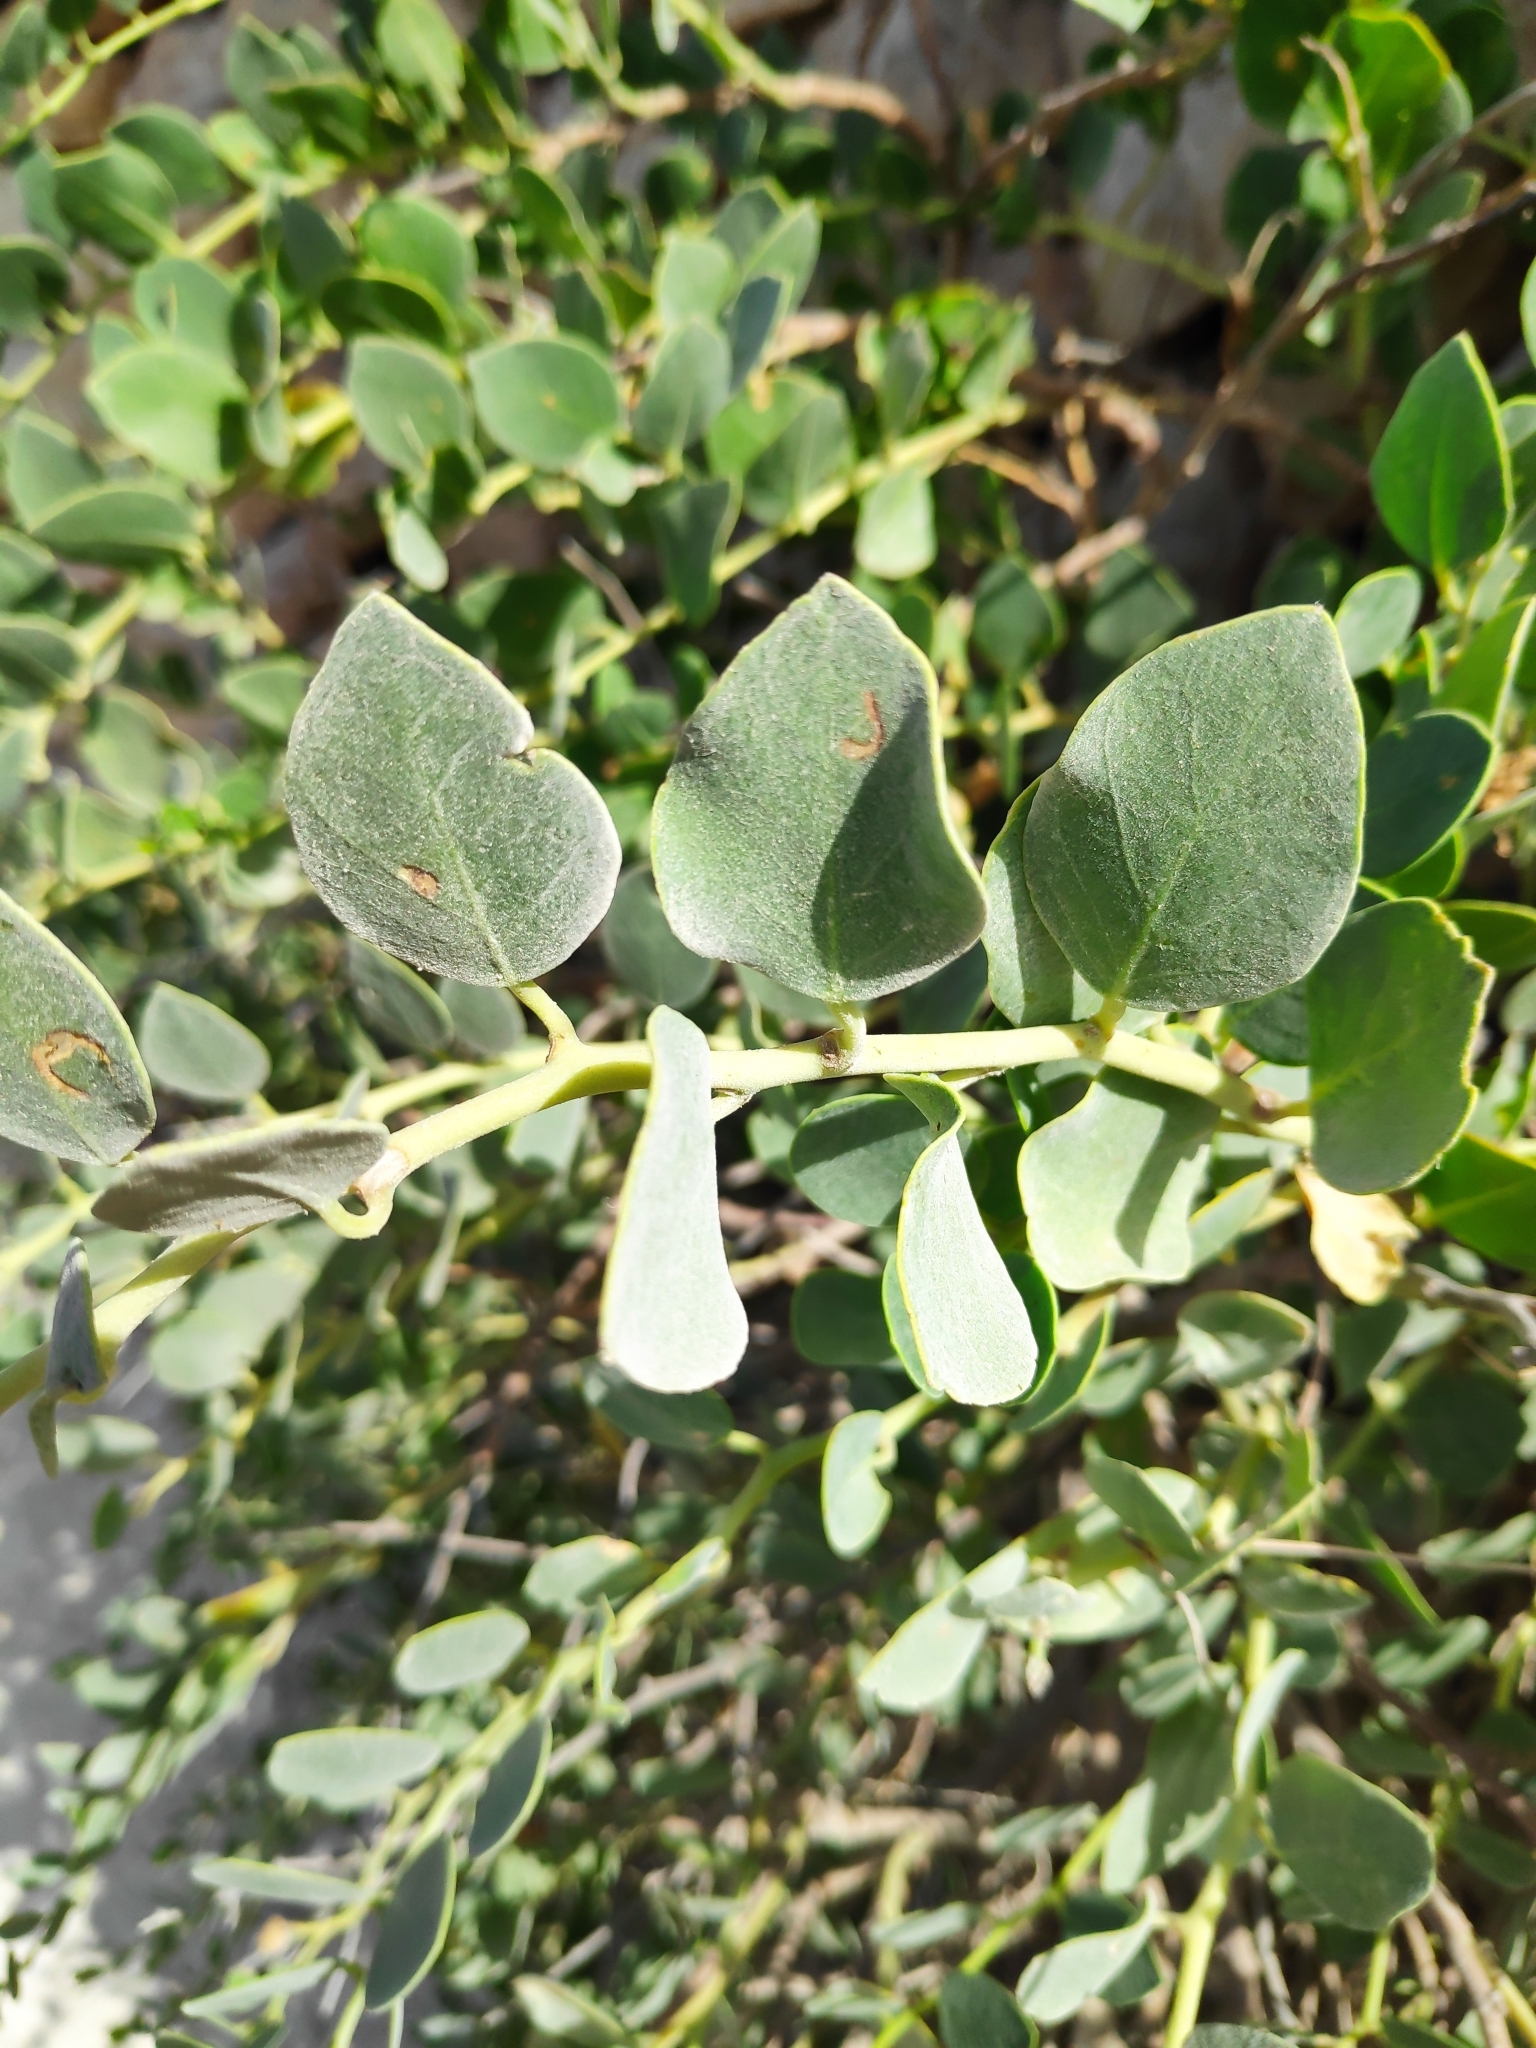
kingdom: Plantae
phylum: Tracheophyta
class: Magnoliopsida
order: Brassicales
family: Capparaceae
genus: Capparis
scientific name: Capparis orientalis
